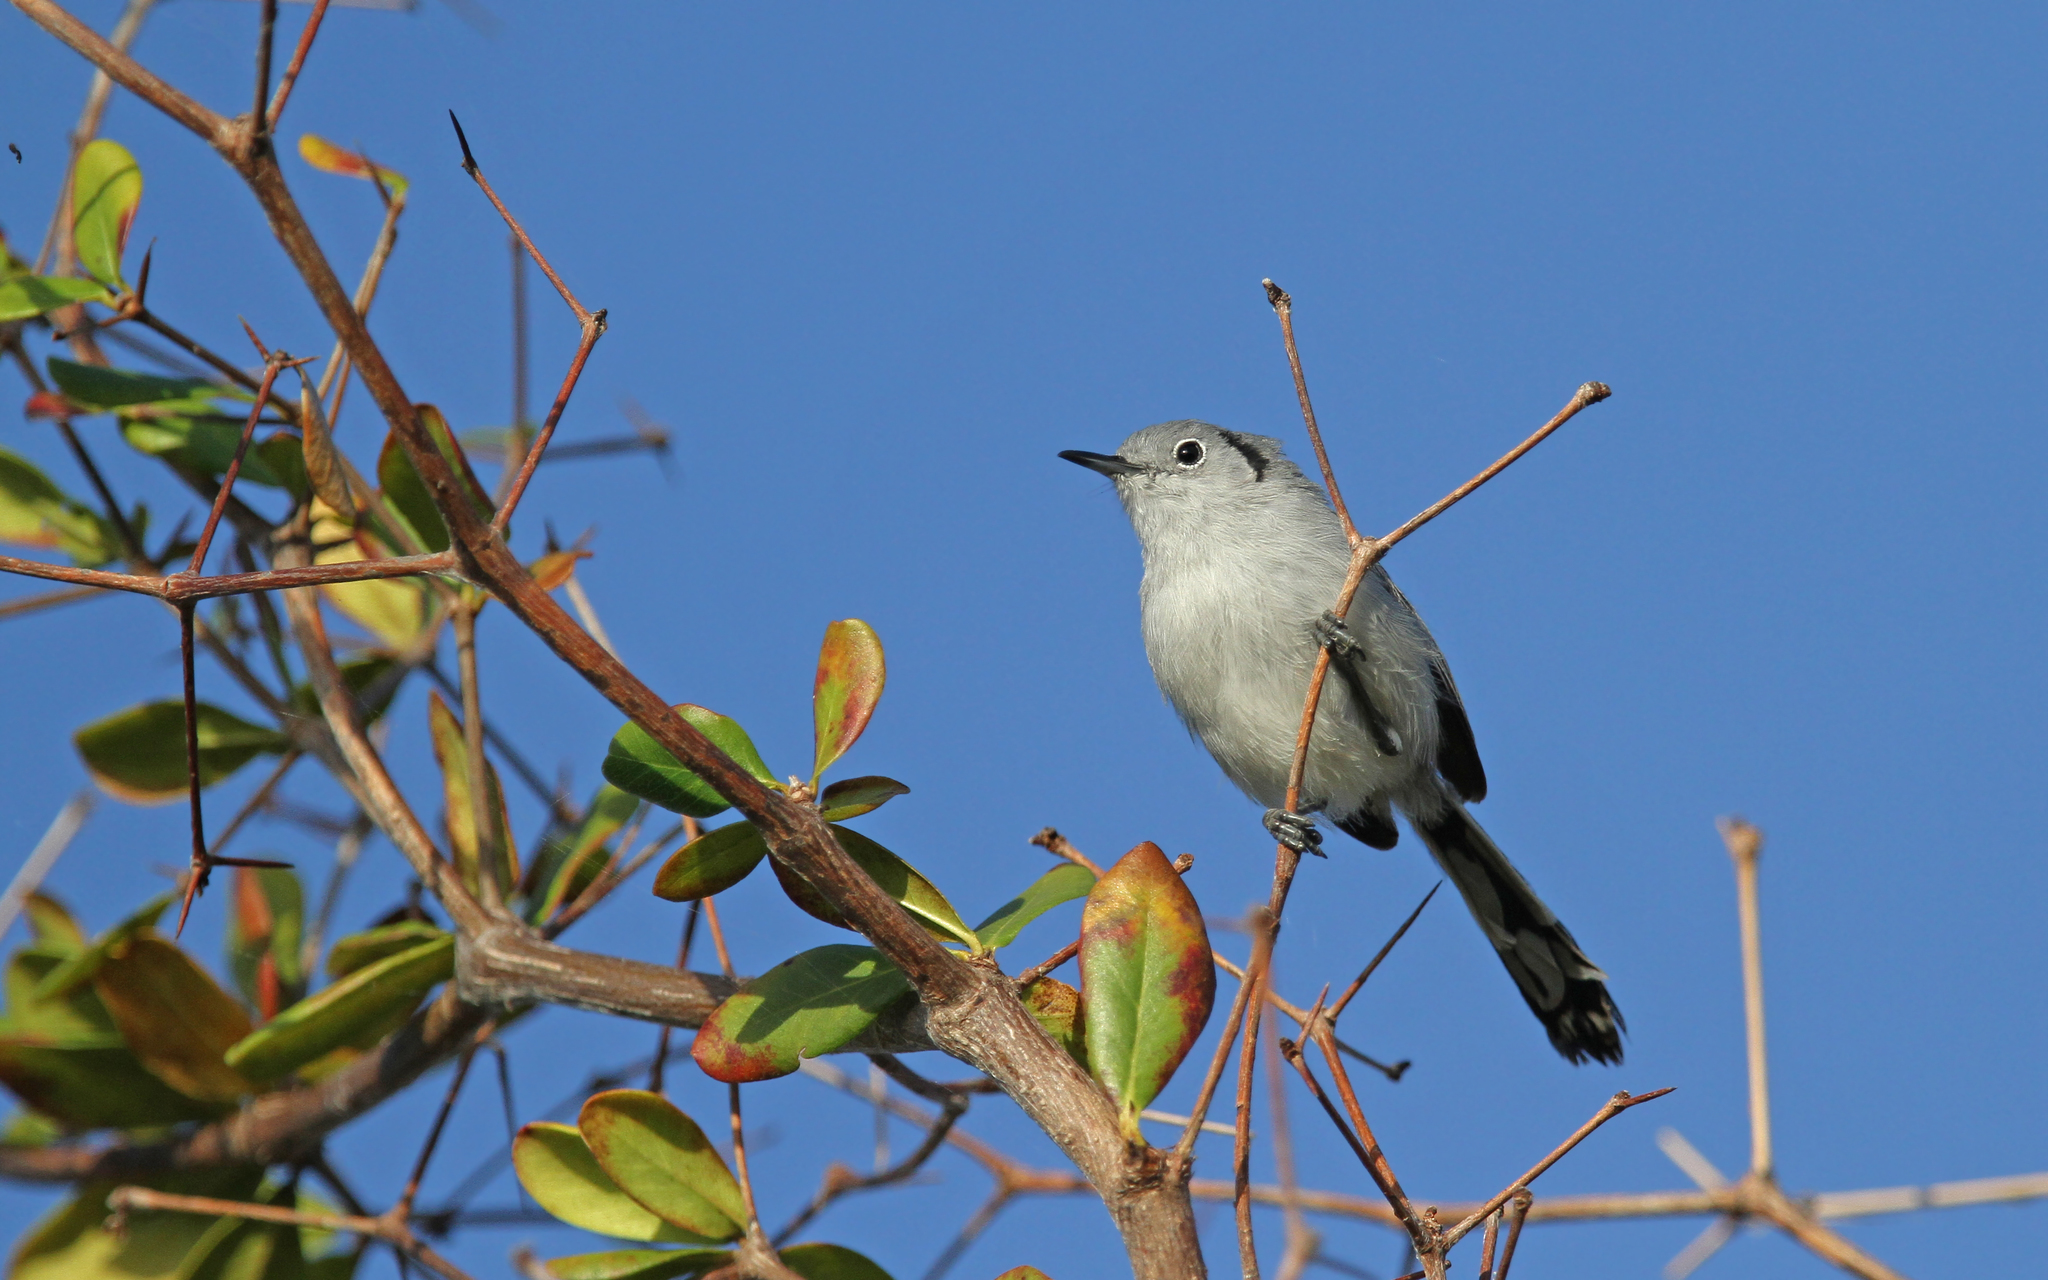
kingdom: Animalia
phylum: Chordata
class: Aves
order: Passeriformes
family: Polioptilidae
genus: Polioptila
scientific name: Polioptila lembeyei
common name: Cuban gnatcatcher
